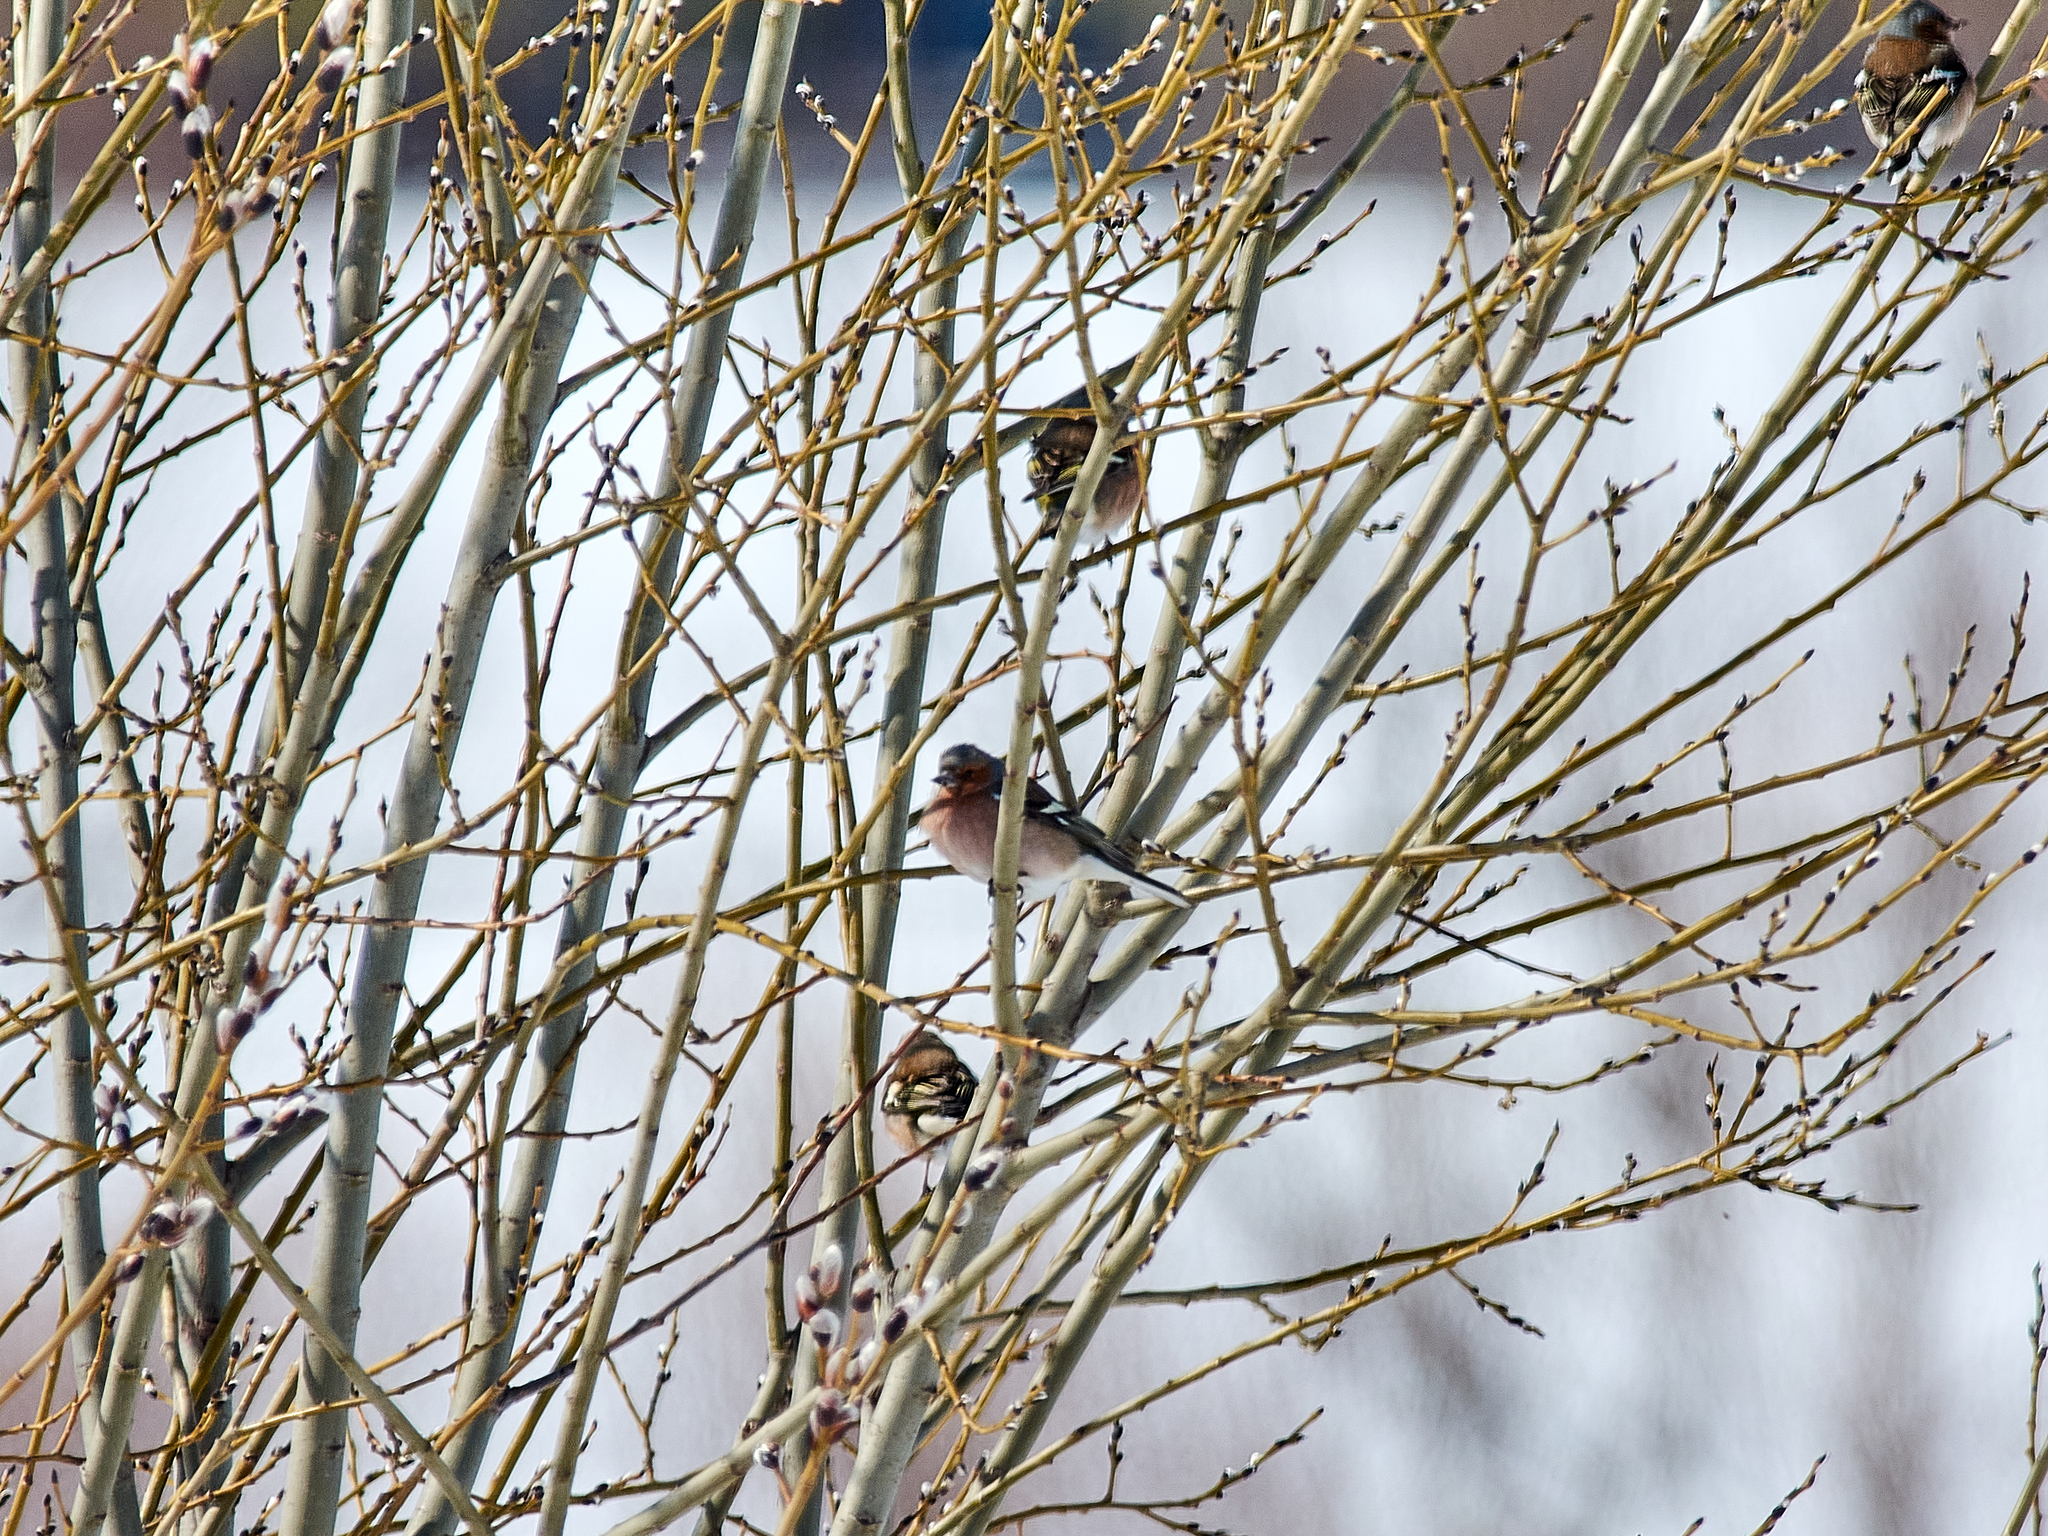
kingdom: Animalia
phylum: Chordata
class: Aves
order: Passeriformes
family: Fringillidae
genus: Fringilla
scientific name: Fringilla coelebs
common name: Common chaffinch
